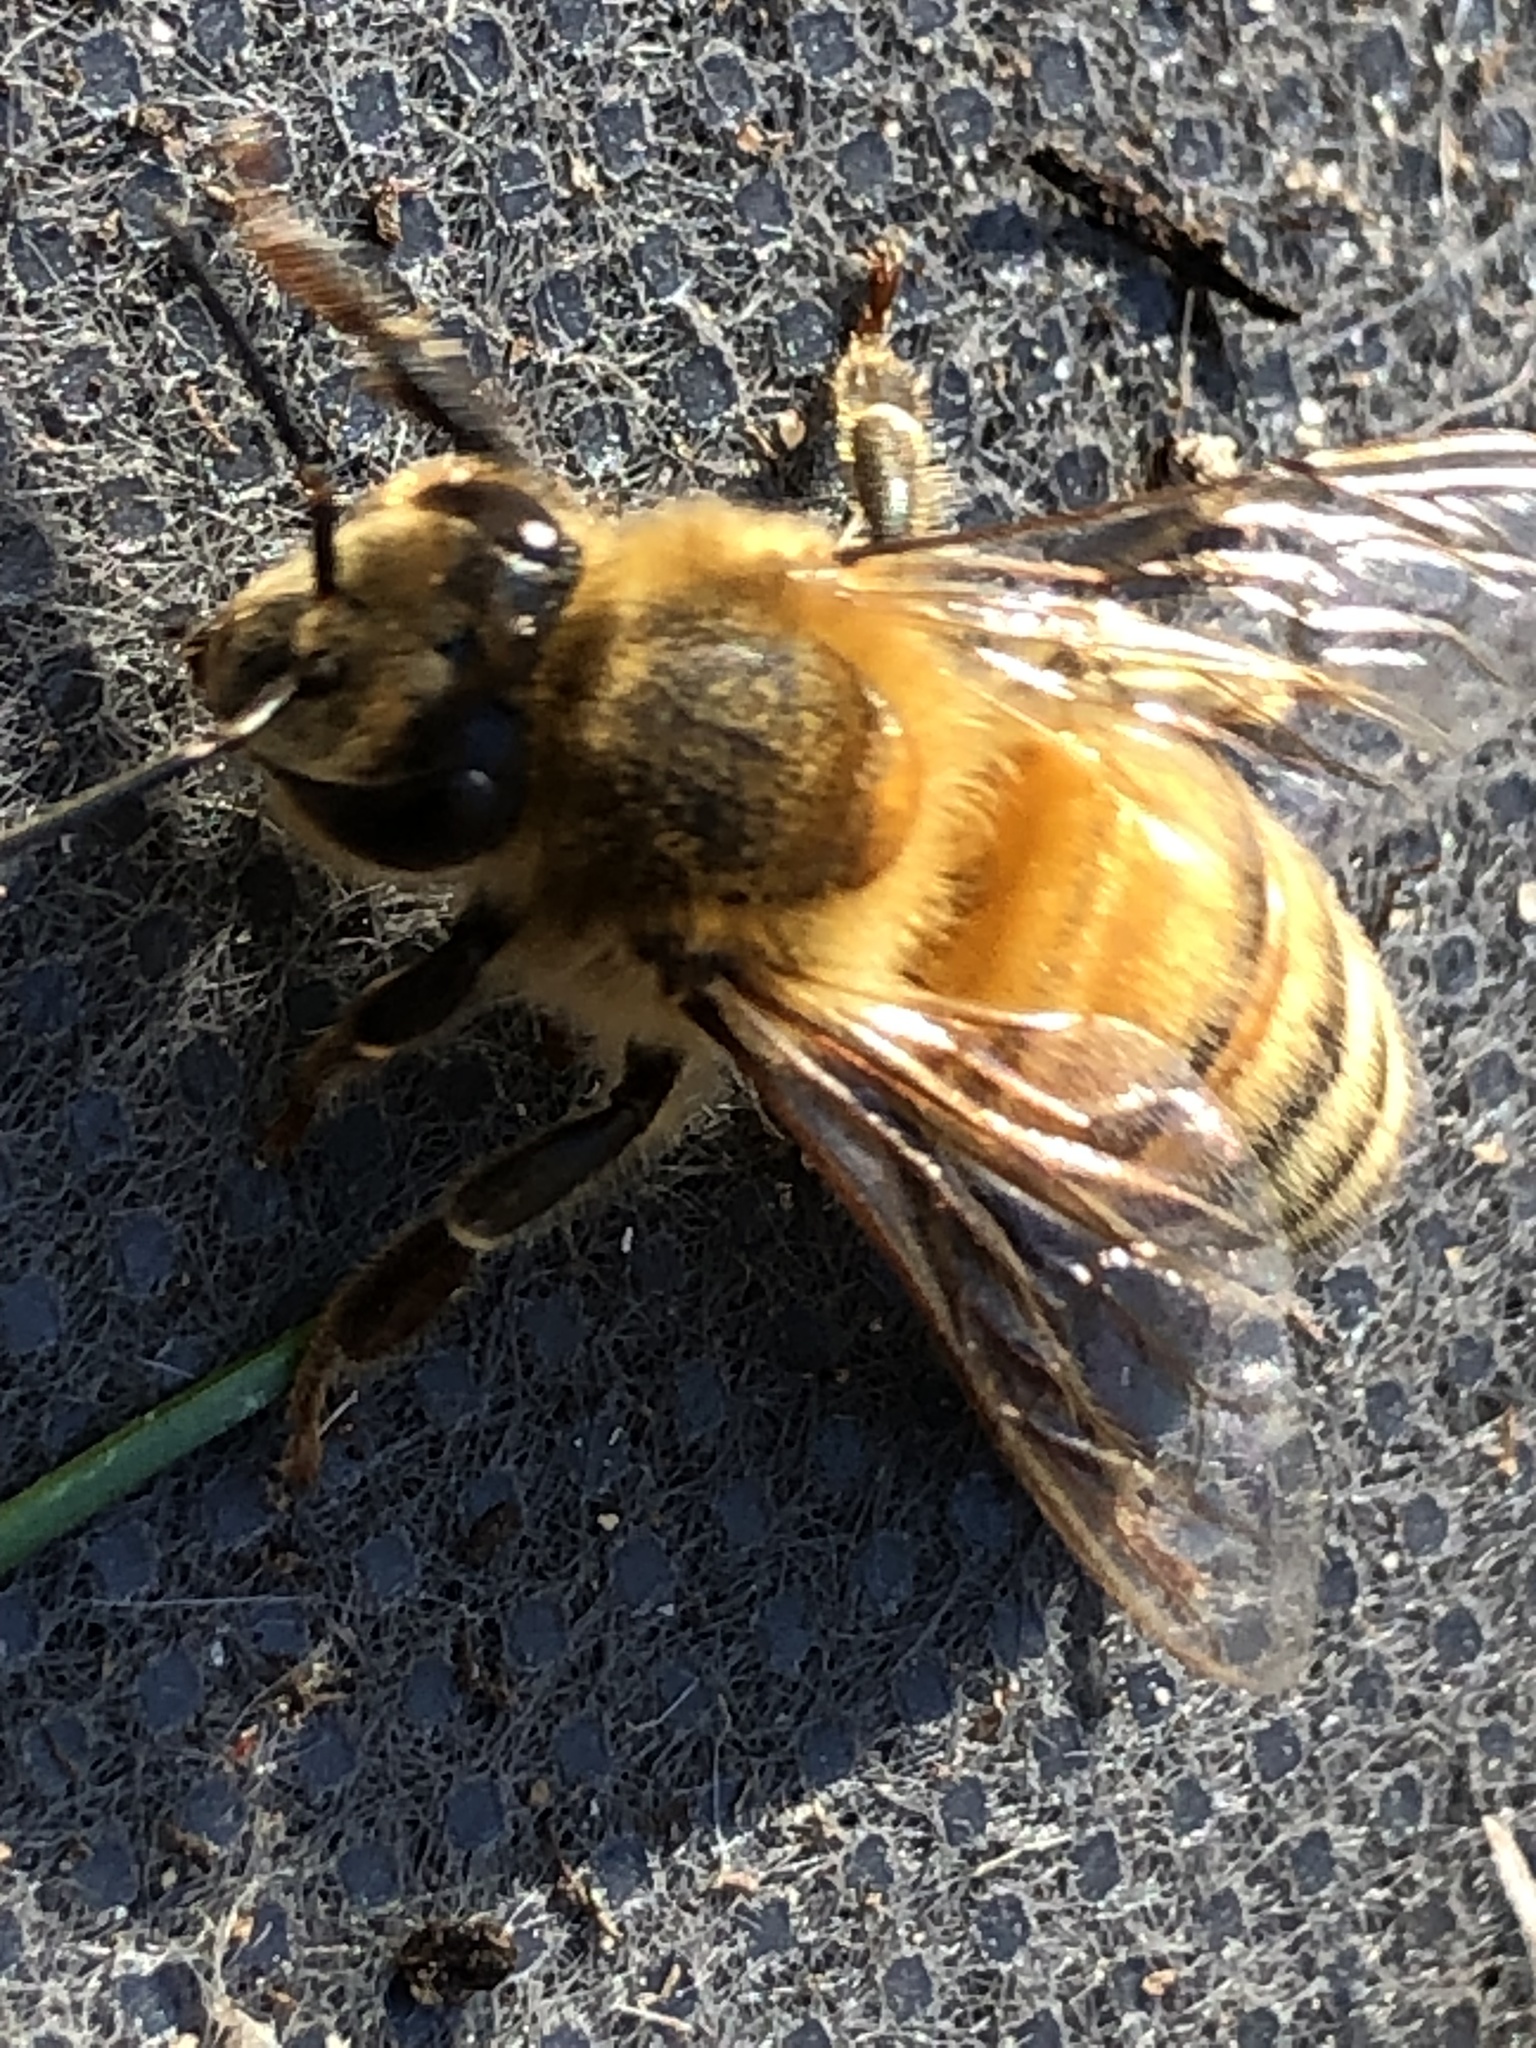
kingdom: Animalia
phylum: Arthropoda
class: Insecta
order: Hymenoptera
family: Apidae
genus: Apis
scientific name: Apis mellifera
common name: Honey bee
